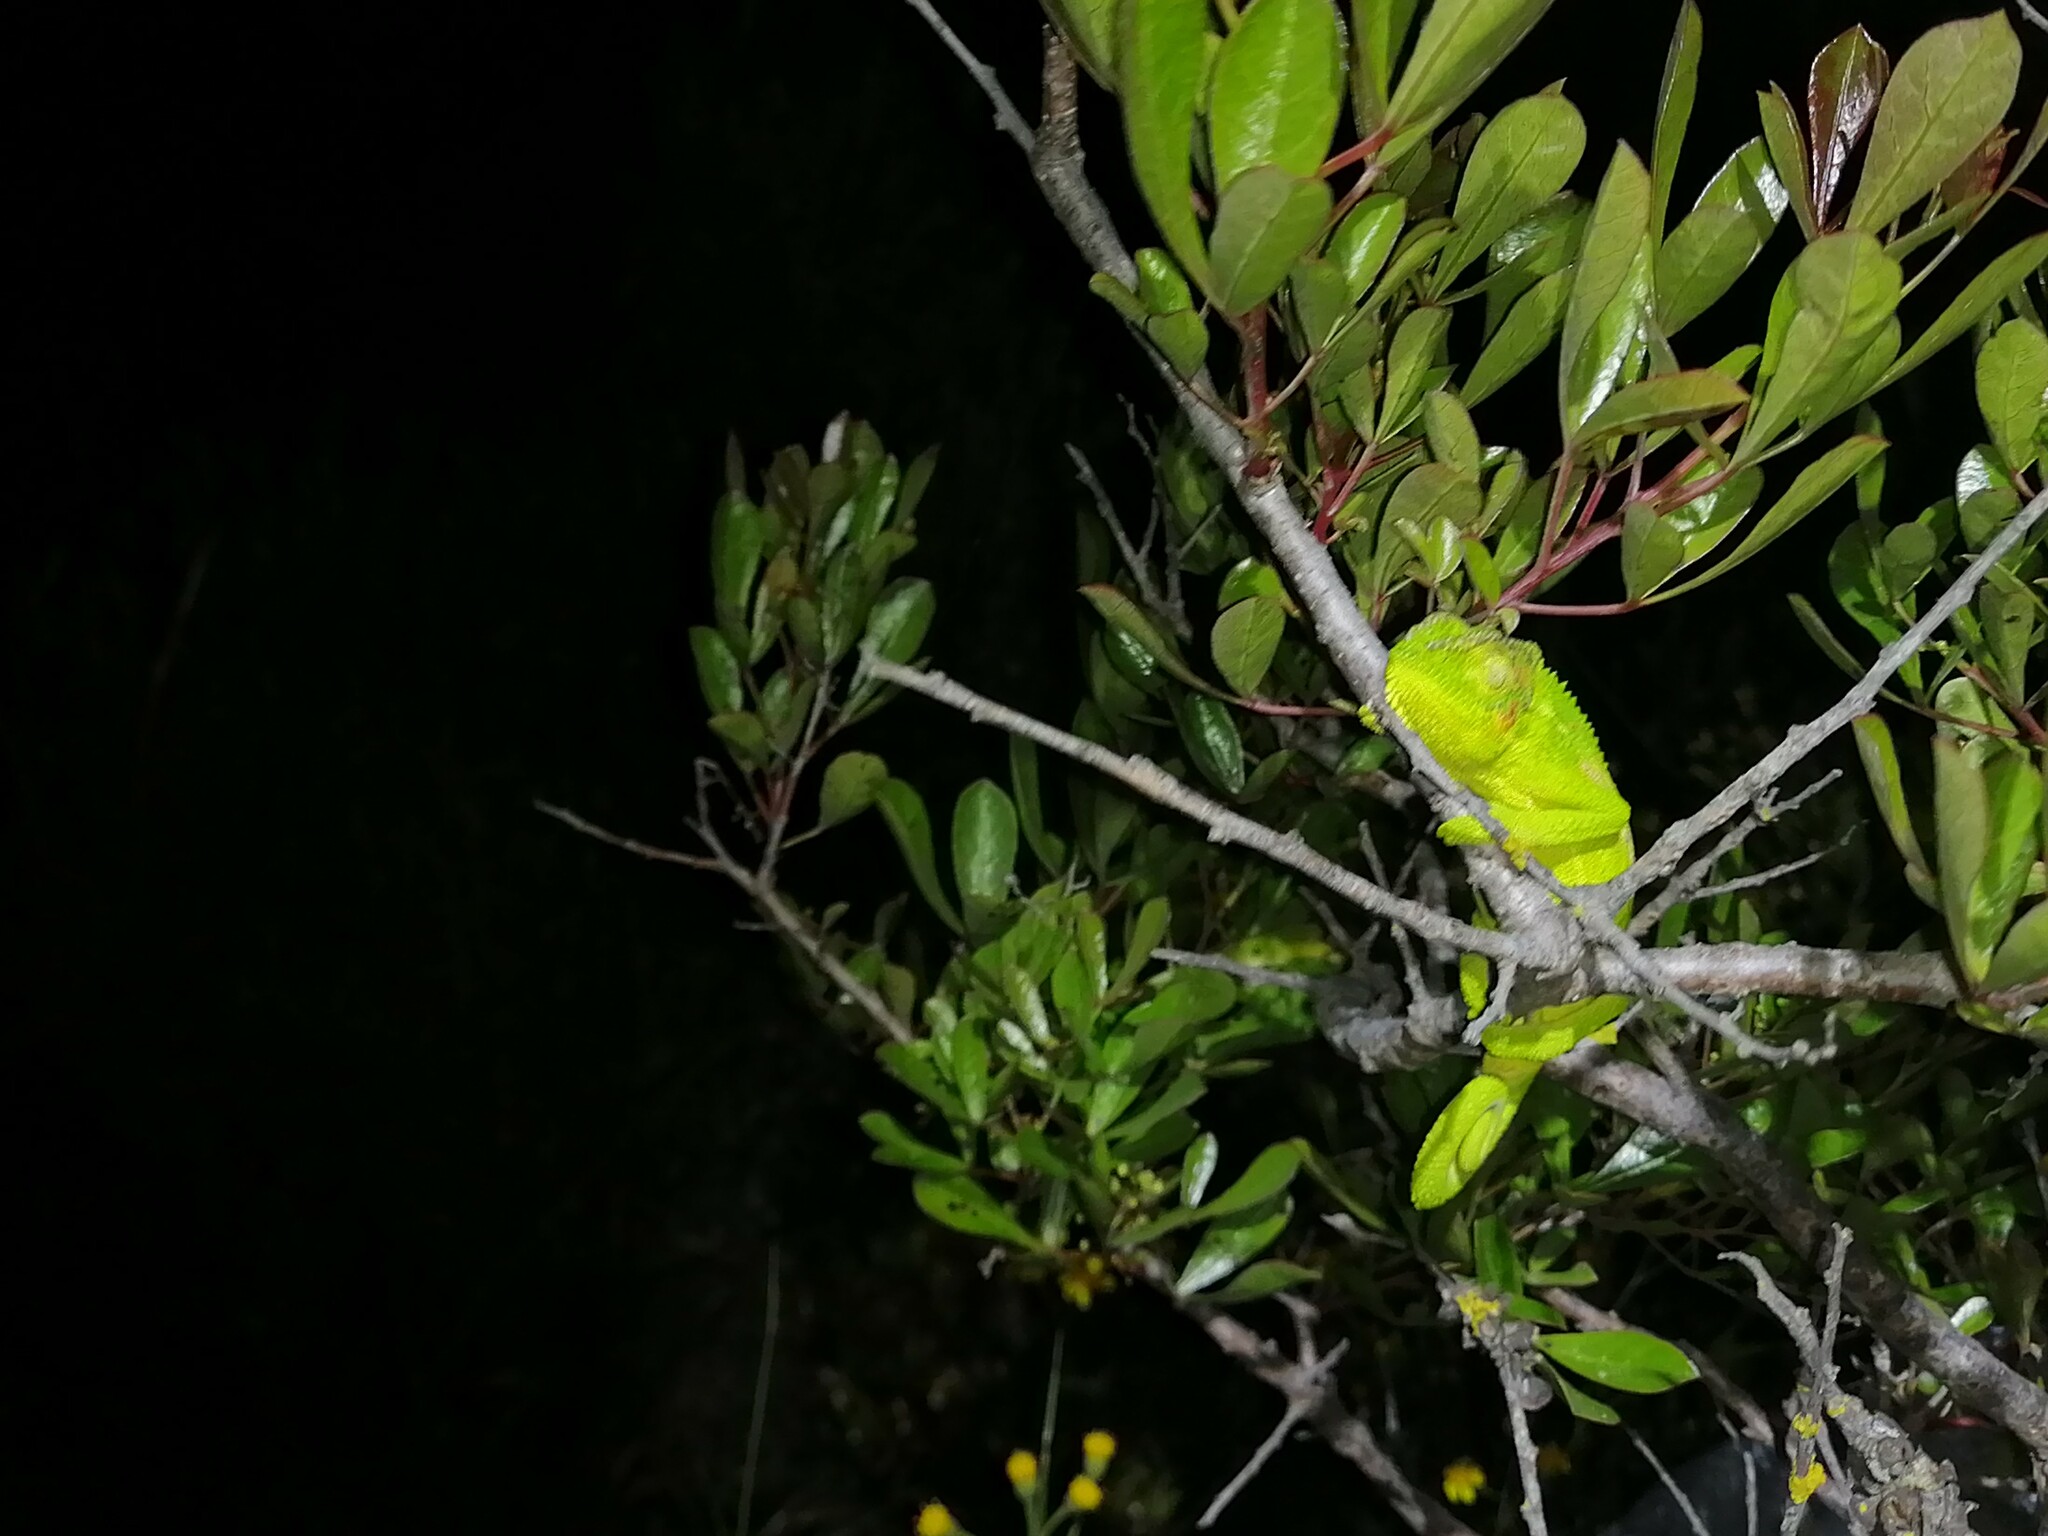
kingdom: Animalia
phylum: Chordata
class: Squamata
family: Chamaeleonidae
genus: Bradypodion
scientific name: Bradypodion pumilum
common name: Cape dwarf chameleon
